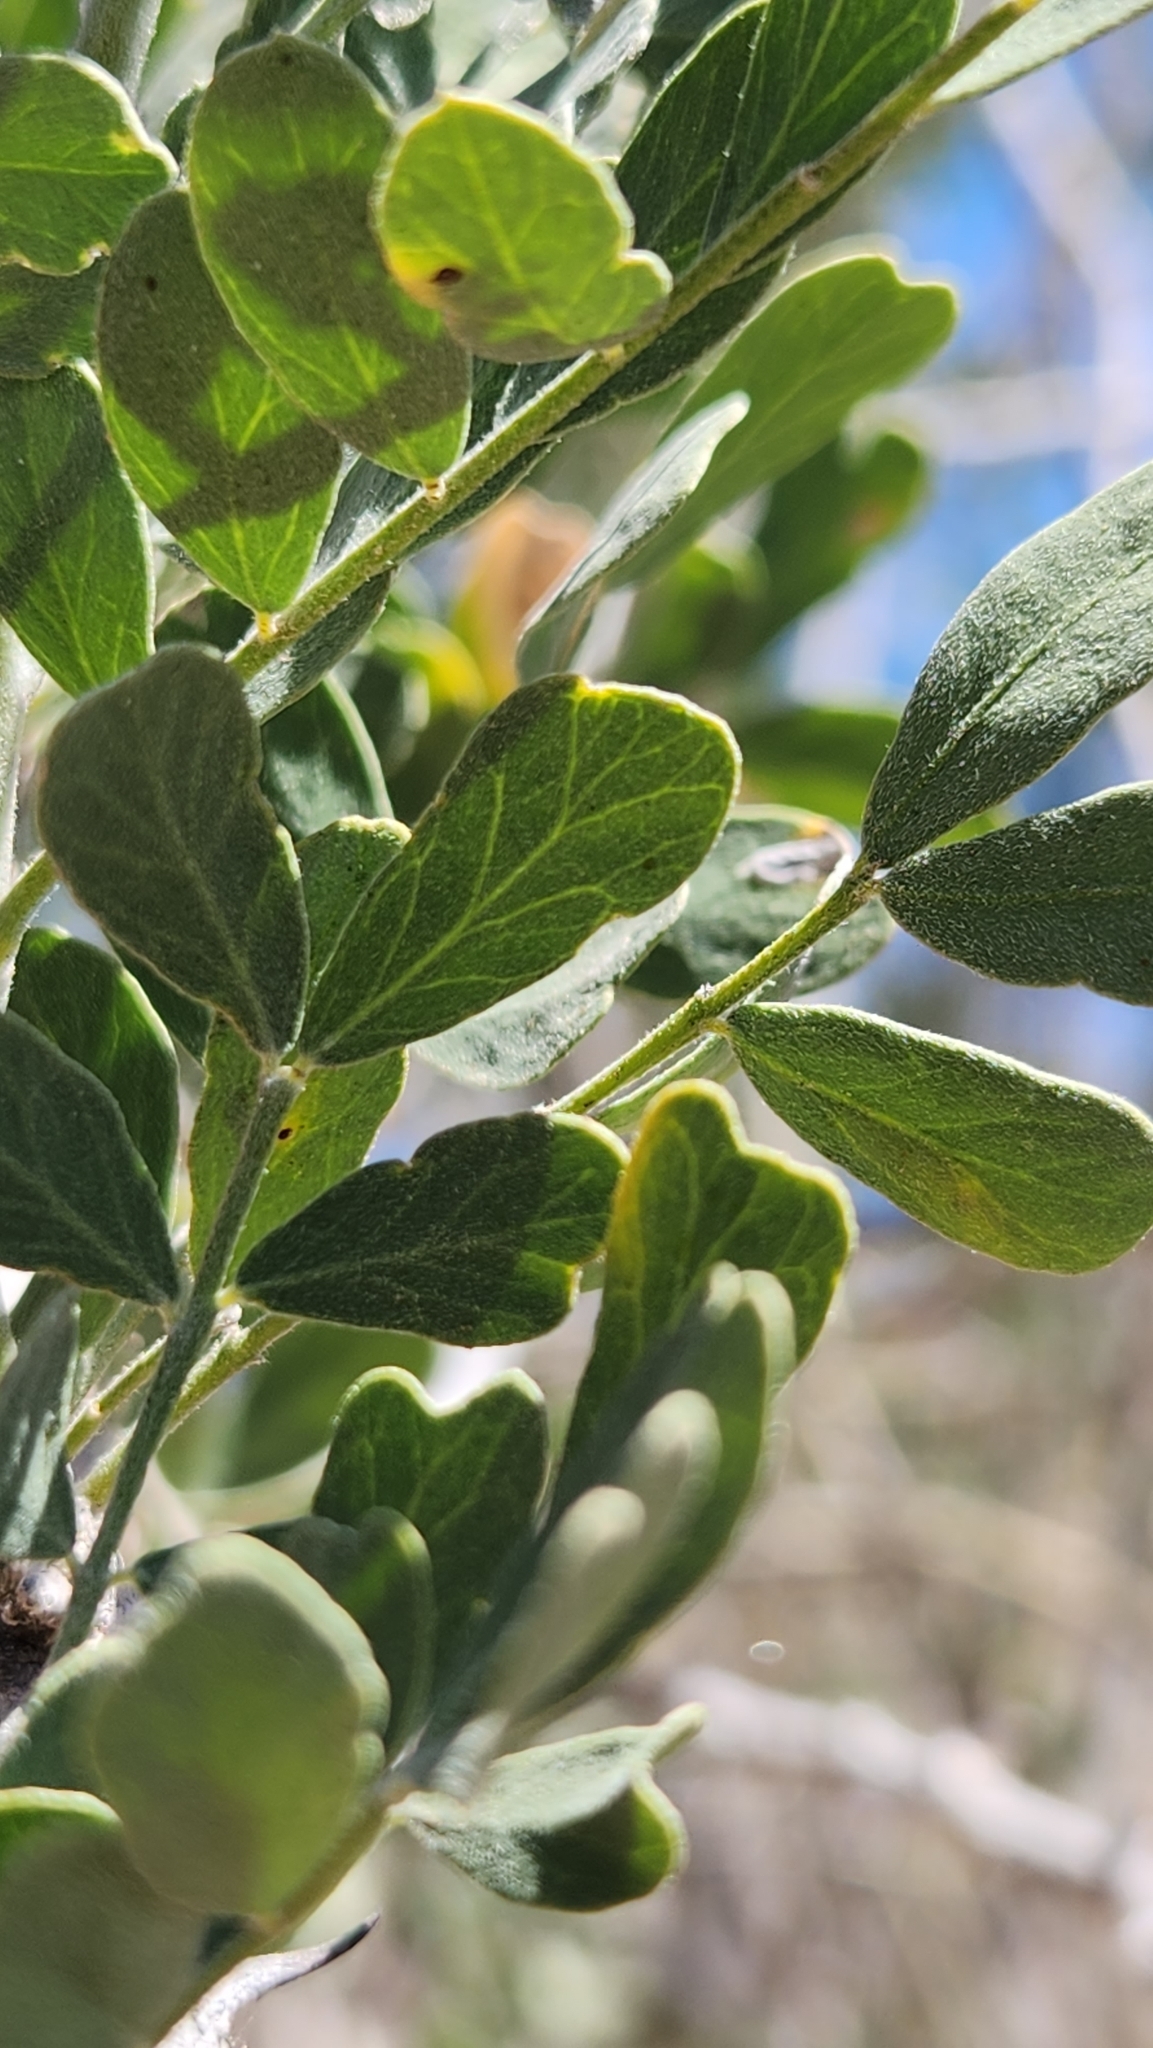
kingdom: Plantae
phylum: Tracheophyta
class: Magnoliopsida
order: Fabales
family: Fabaceae
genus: Olneya
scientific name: Olneya tesota
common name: Desert ironwood
